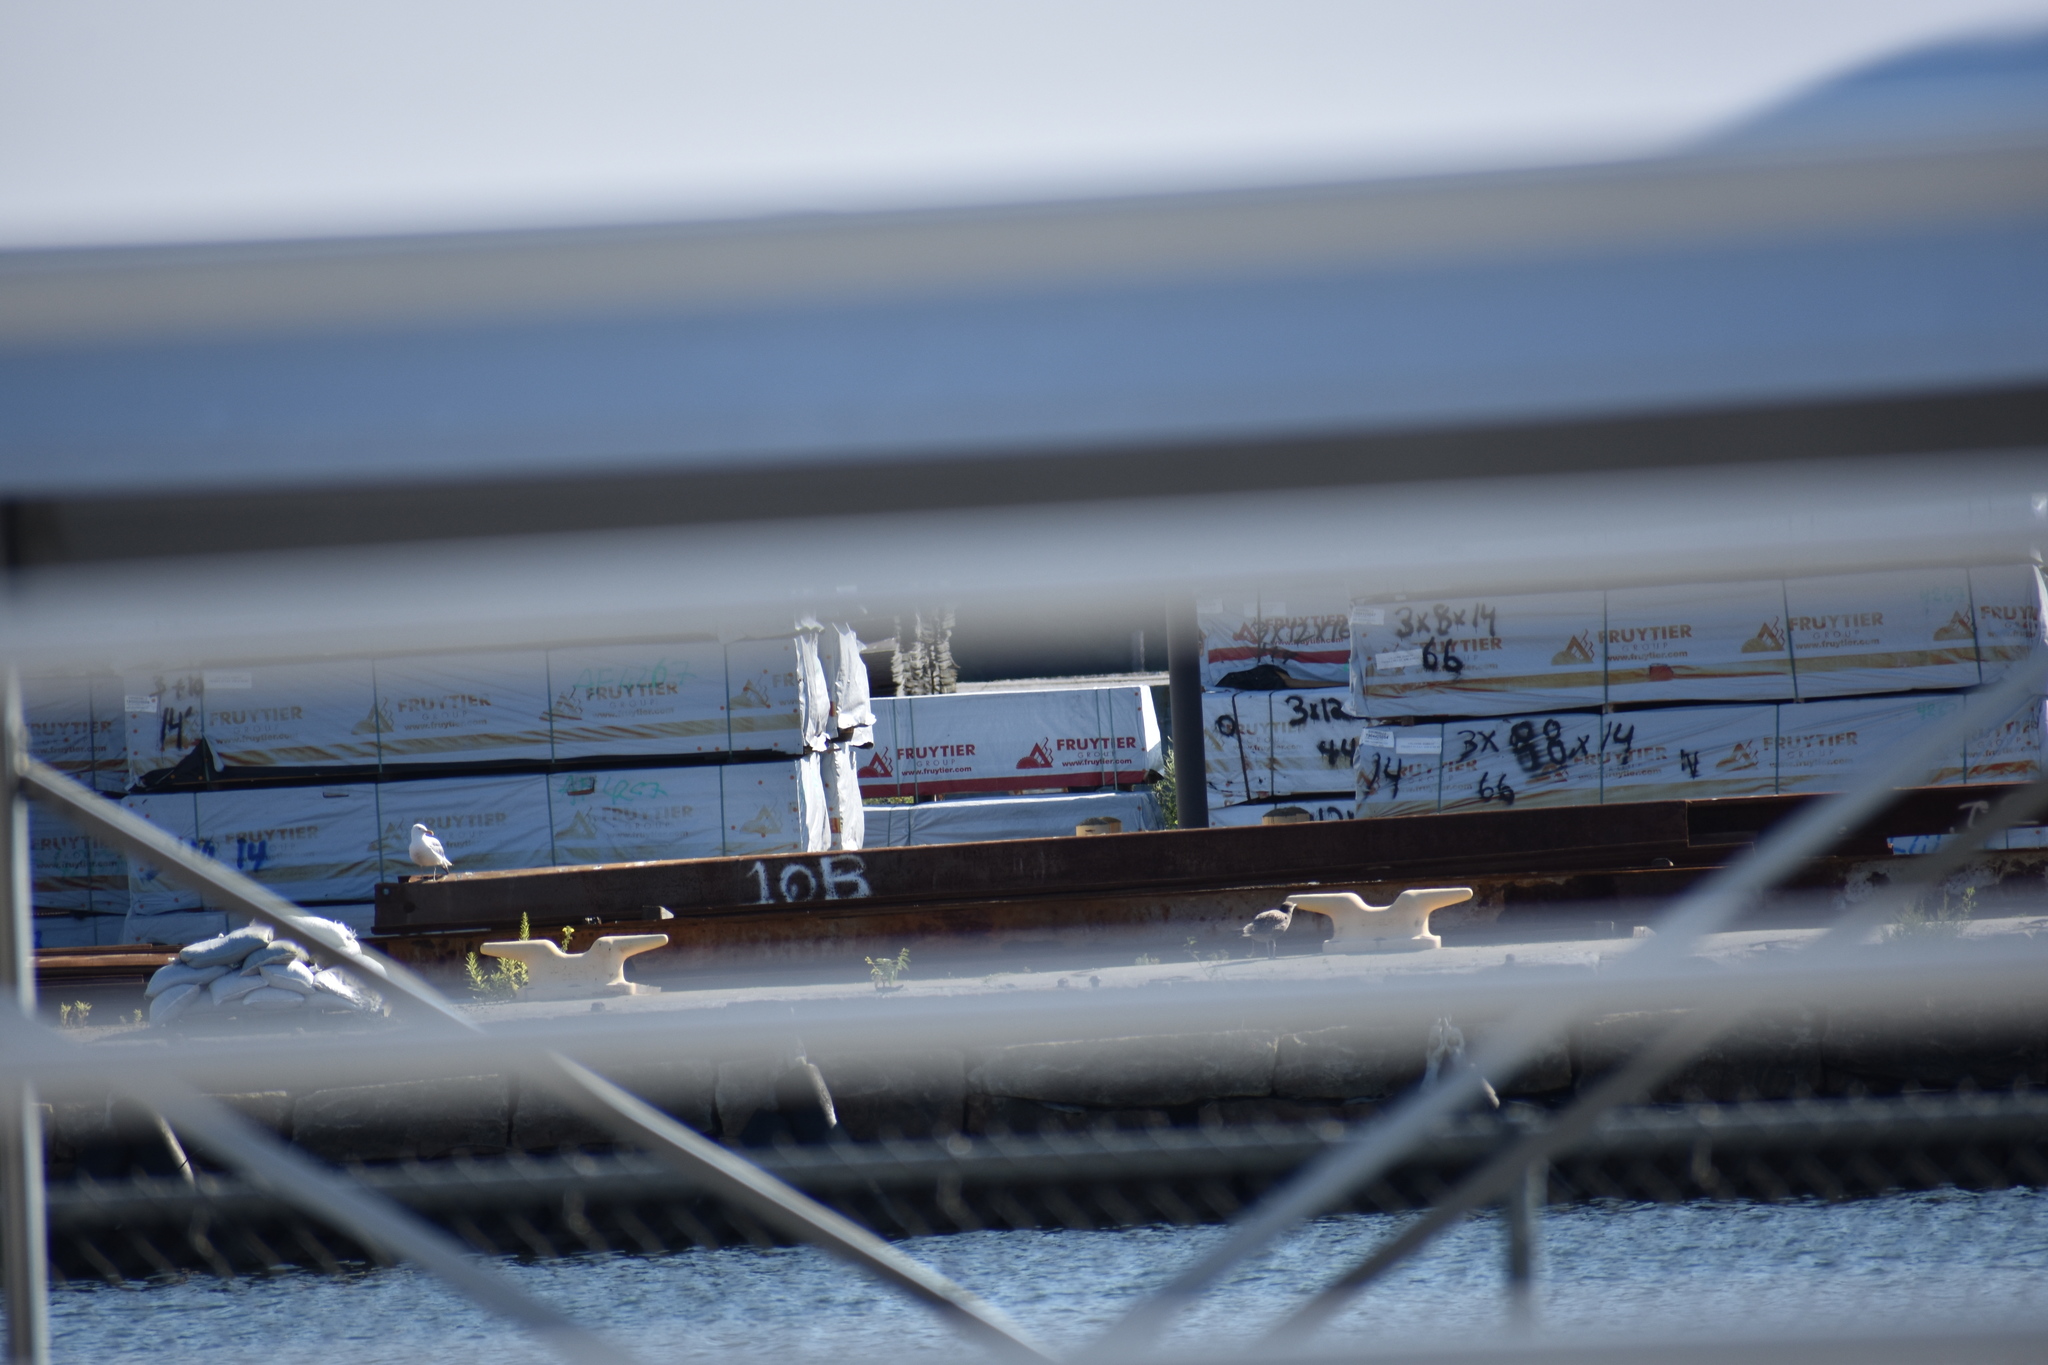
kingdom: Animalia
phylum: Chordata
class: Aves
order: Charadriiformes
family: Laridae
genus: Larus
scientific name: Larus argentatus
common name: Herring gull
